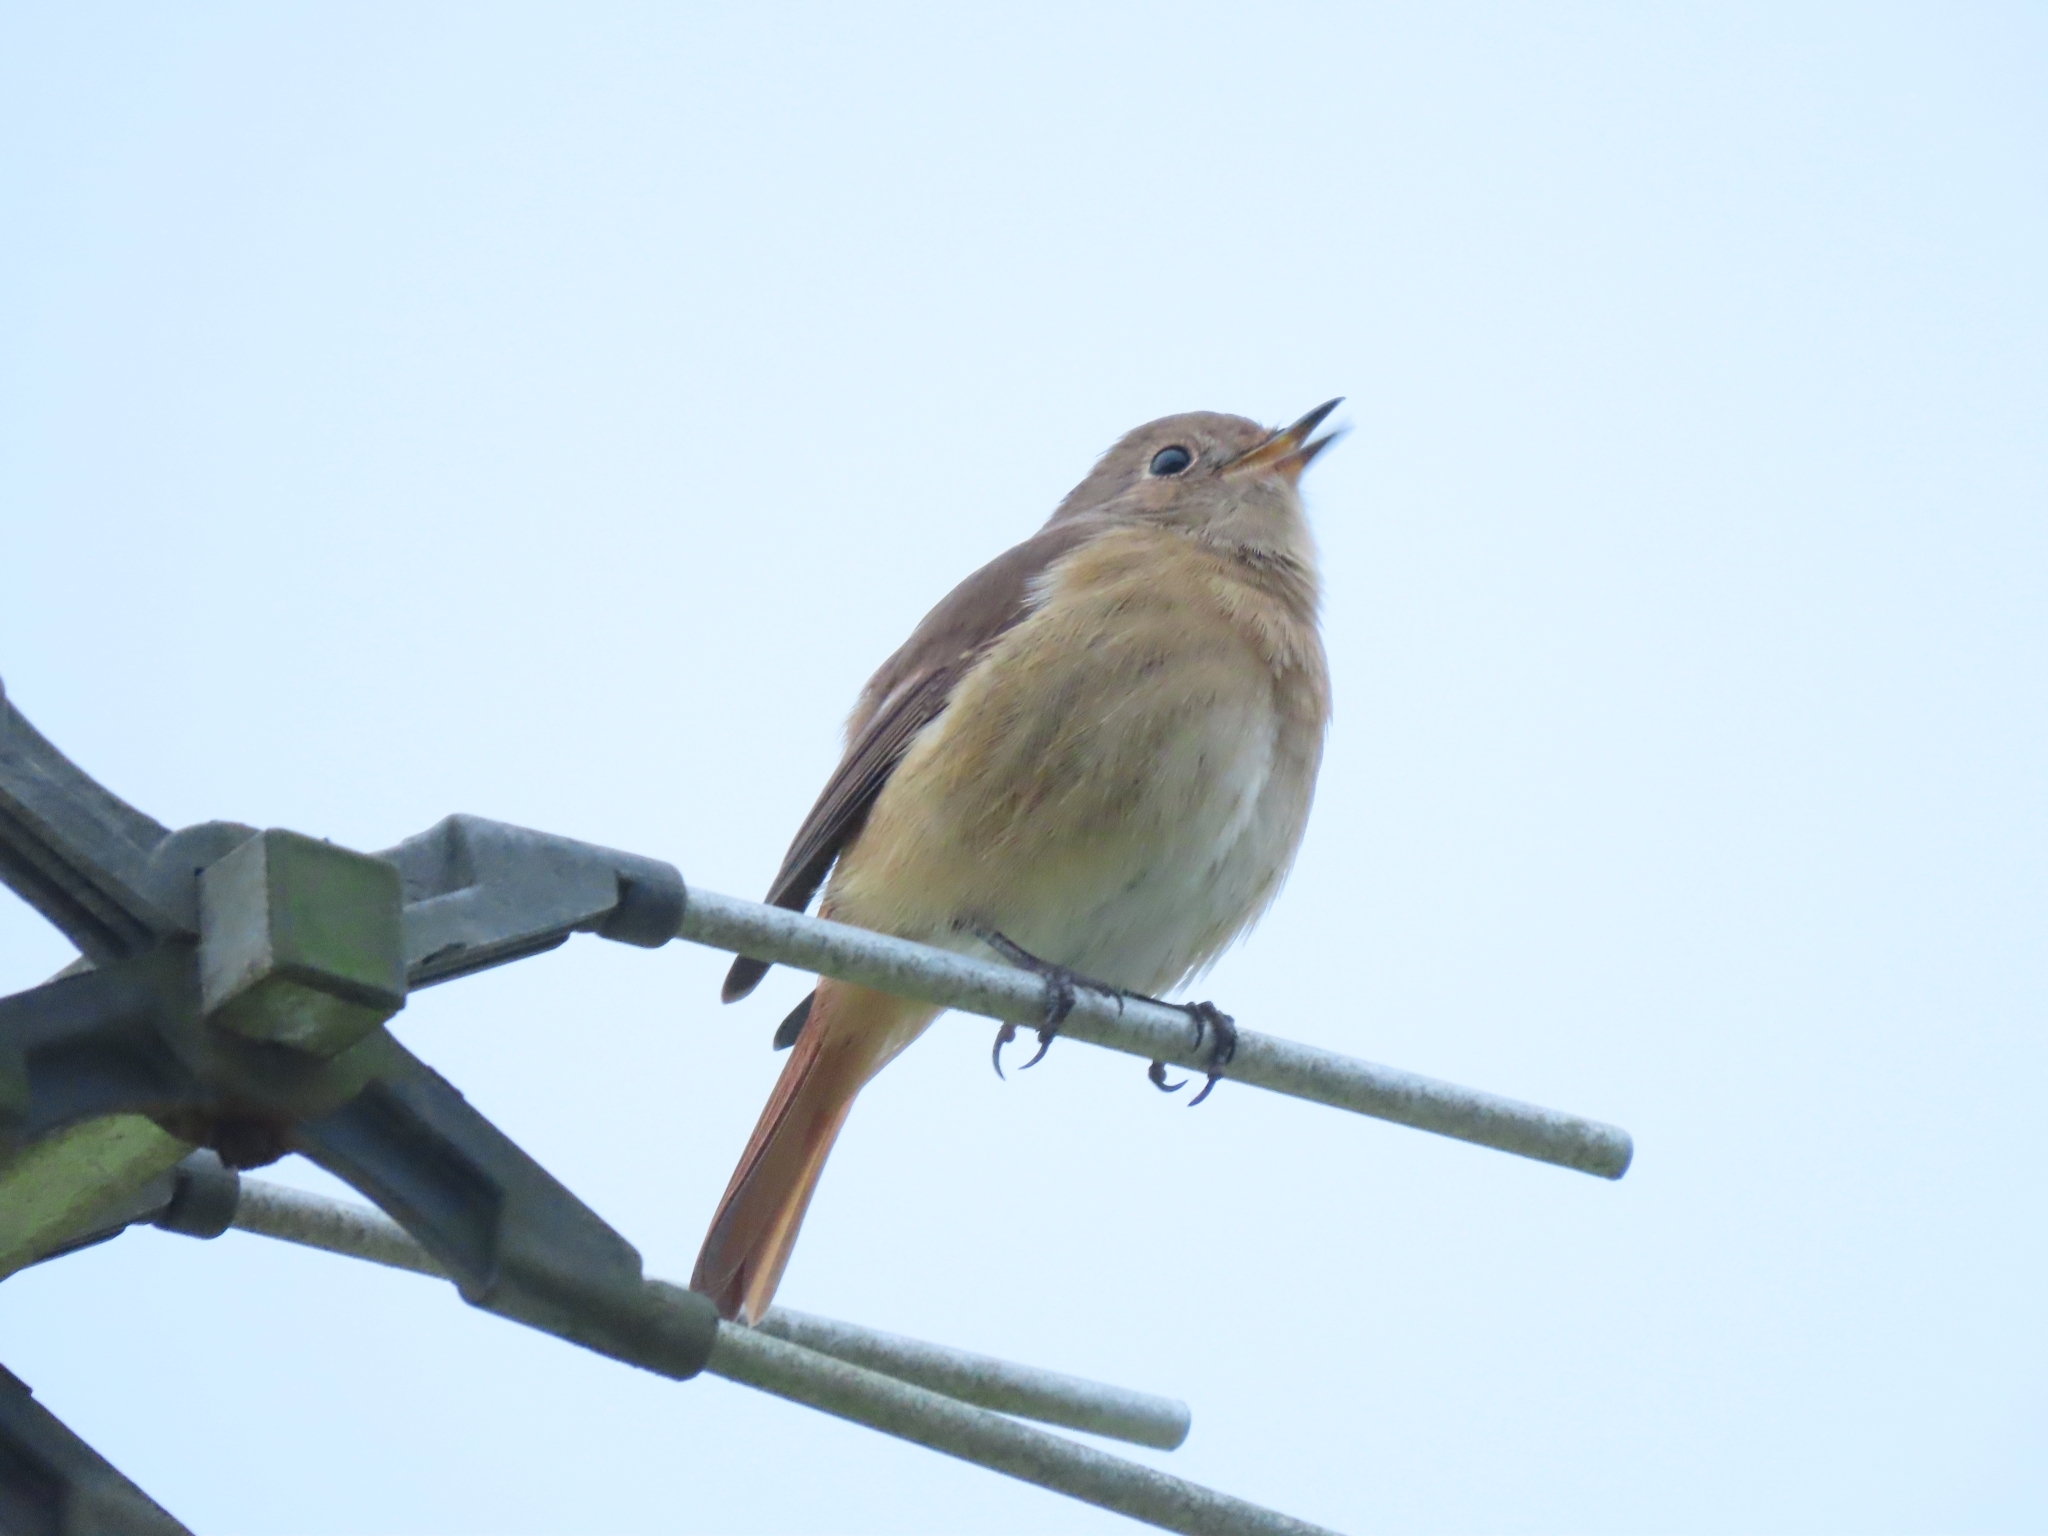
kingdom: Animalia
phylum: Chordata
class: Aves
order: Passeriformes
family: Muscicapidae
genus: Phoenicurus
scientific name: Phoenicurus auroreus
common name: Daurian redstart
